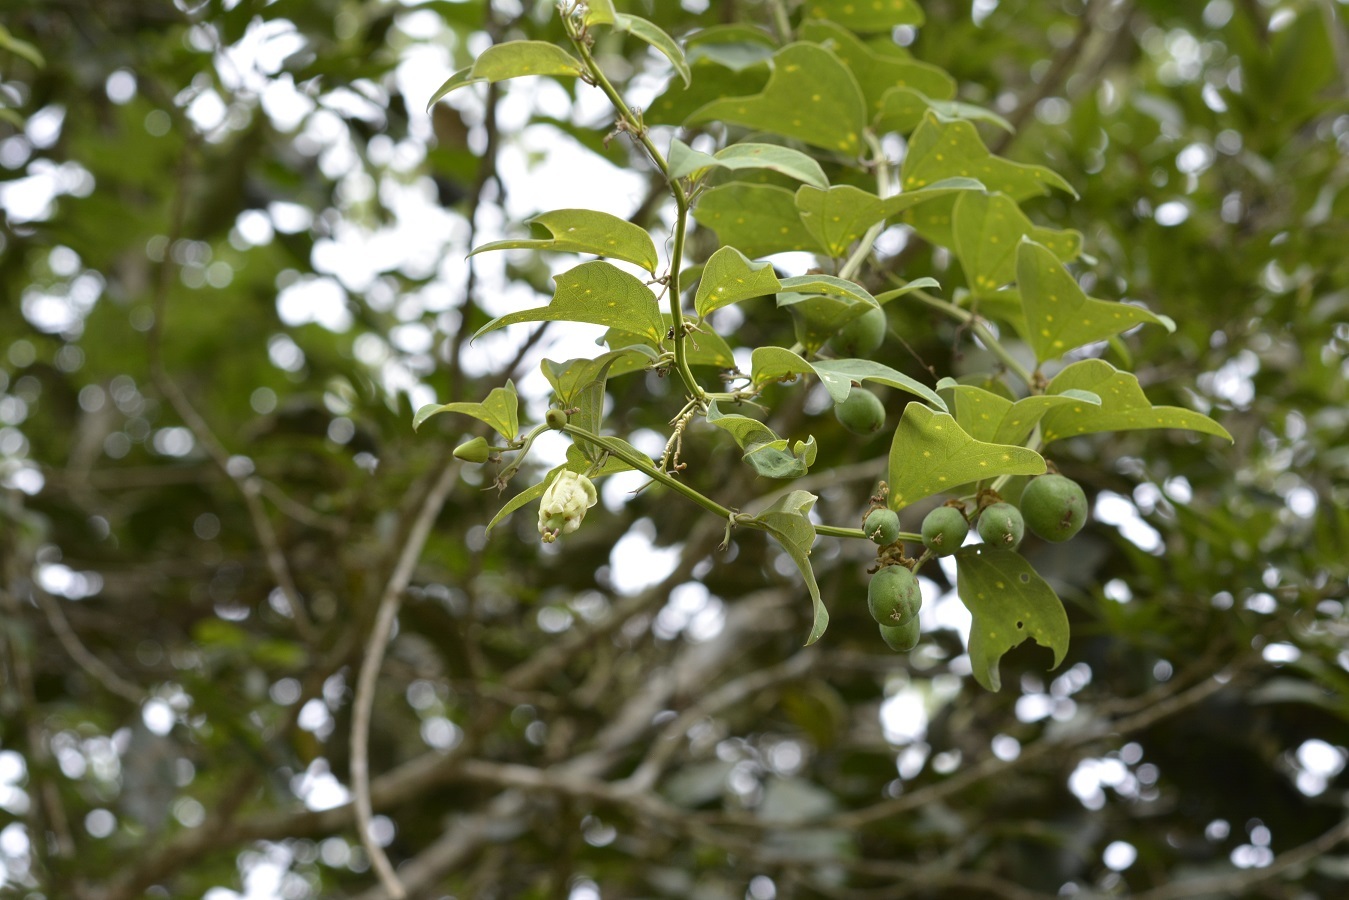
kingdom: Plantae
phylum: Tracheophyta
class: Magnoliopsida
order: Malpighiales
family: Passifloraceae
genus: Passiflora
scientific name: Passiflora biflora
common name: Twoflower passionflower
